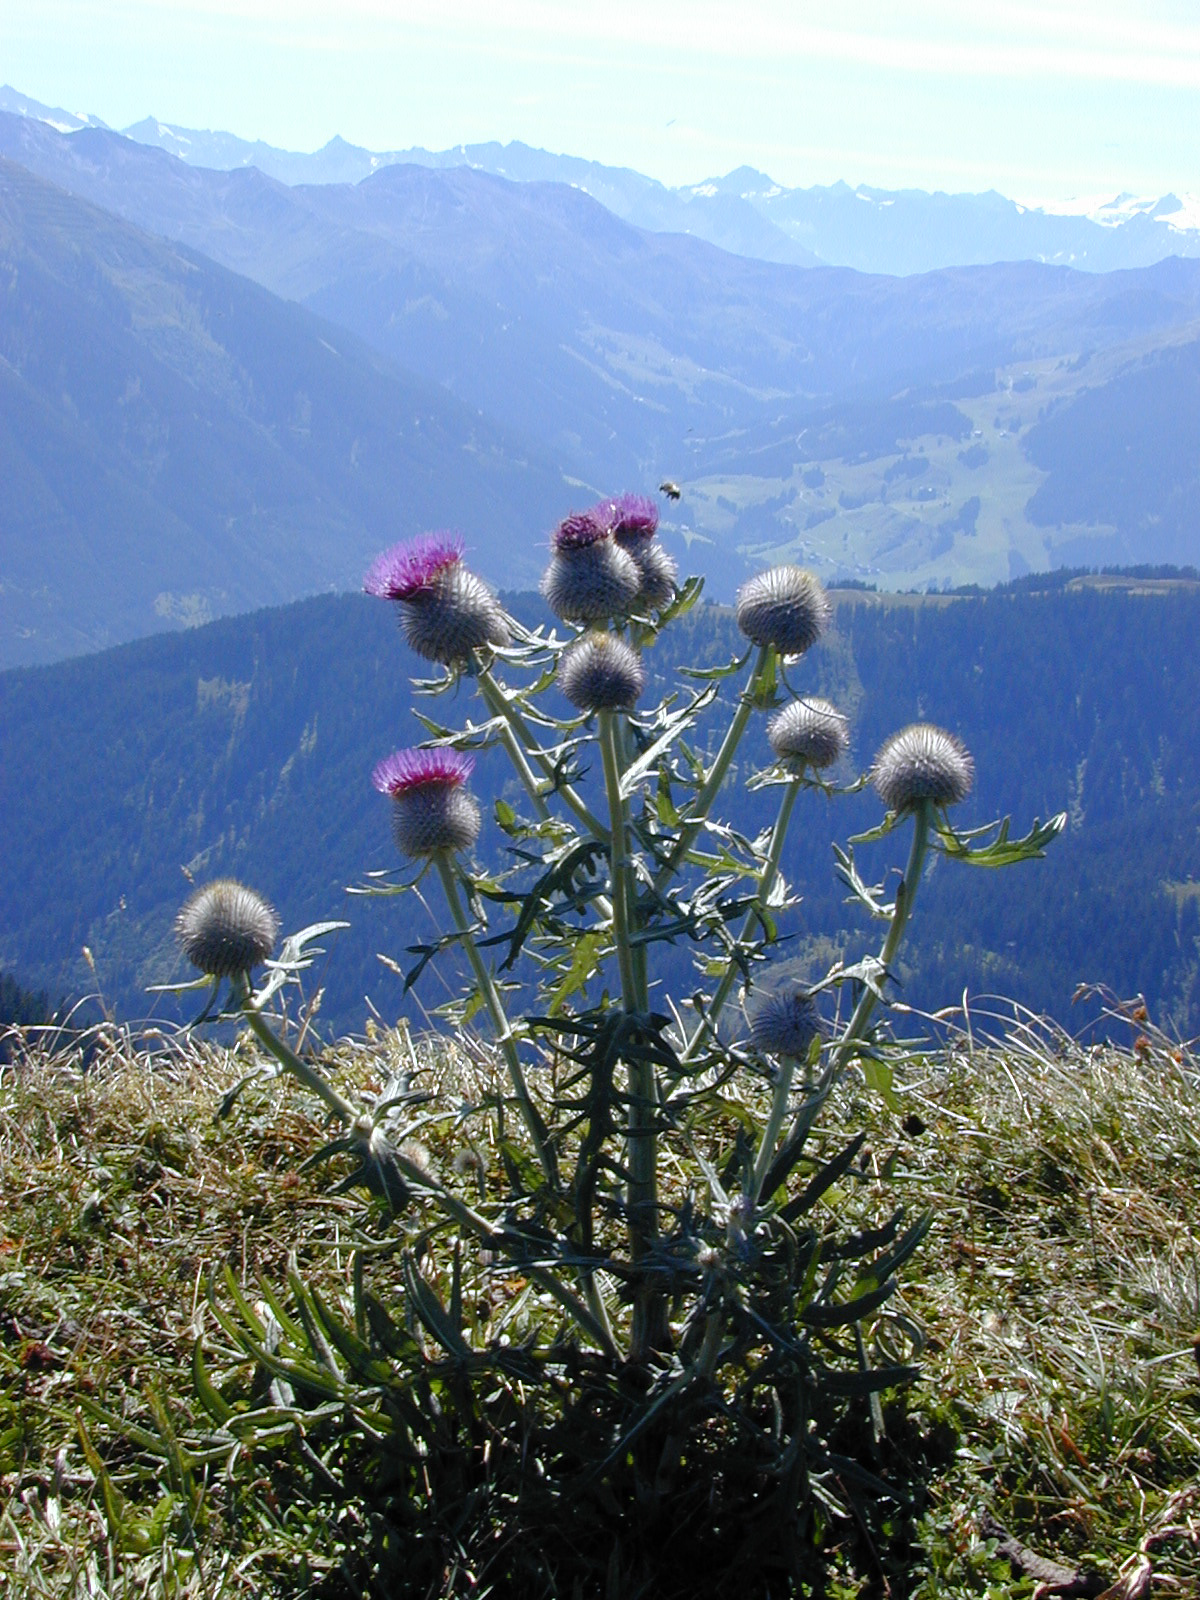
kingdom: Plantae
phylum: Tracheophyta
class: Magnoliopsida
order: Asterales
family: Asteraceae
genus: Lophiolepis
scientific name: Lophiolepis eriophora
